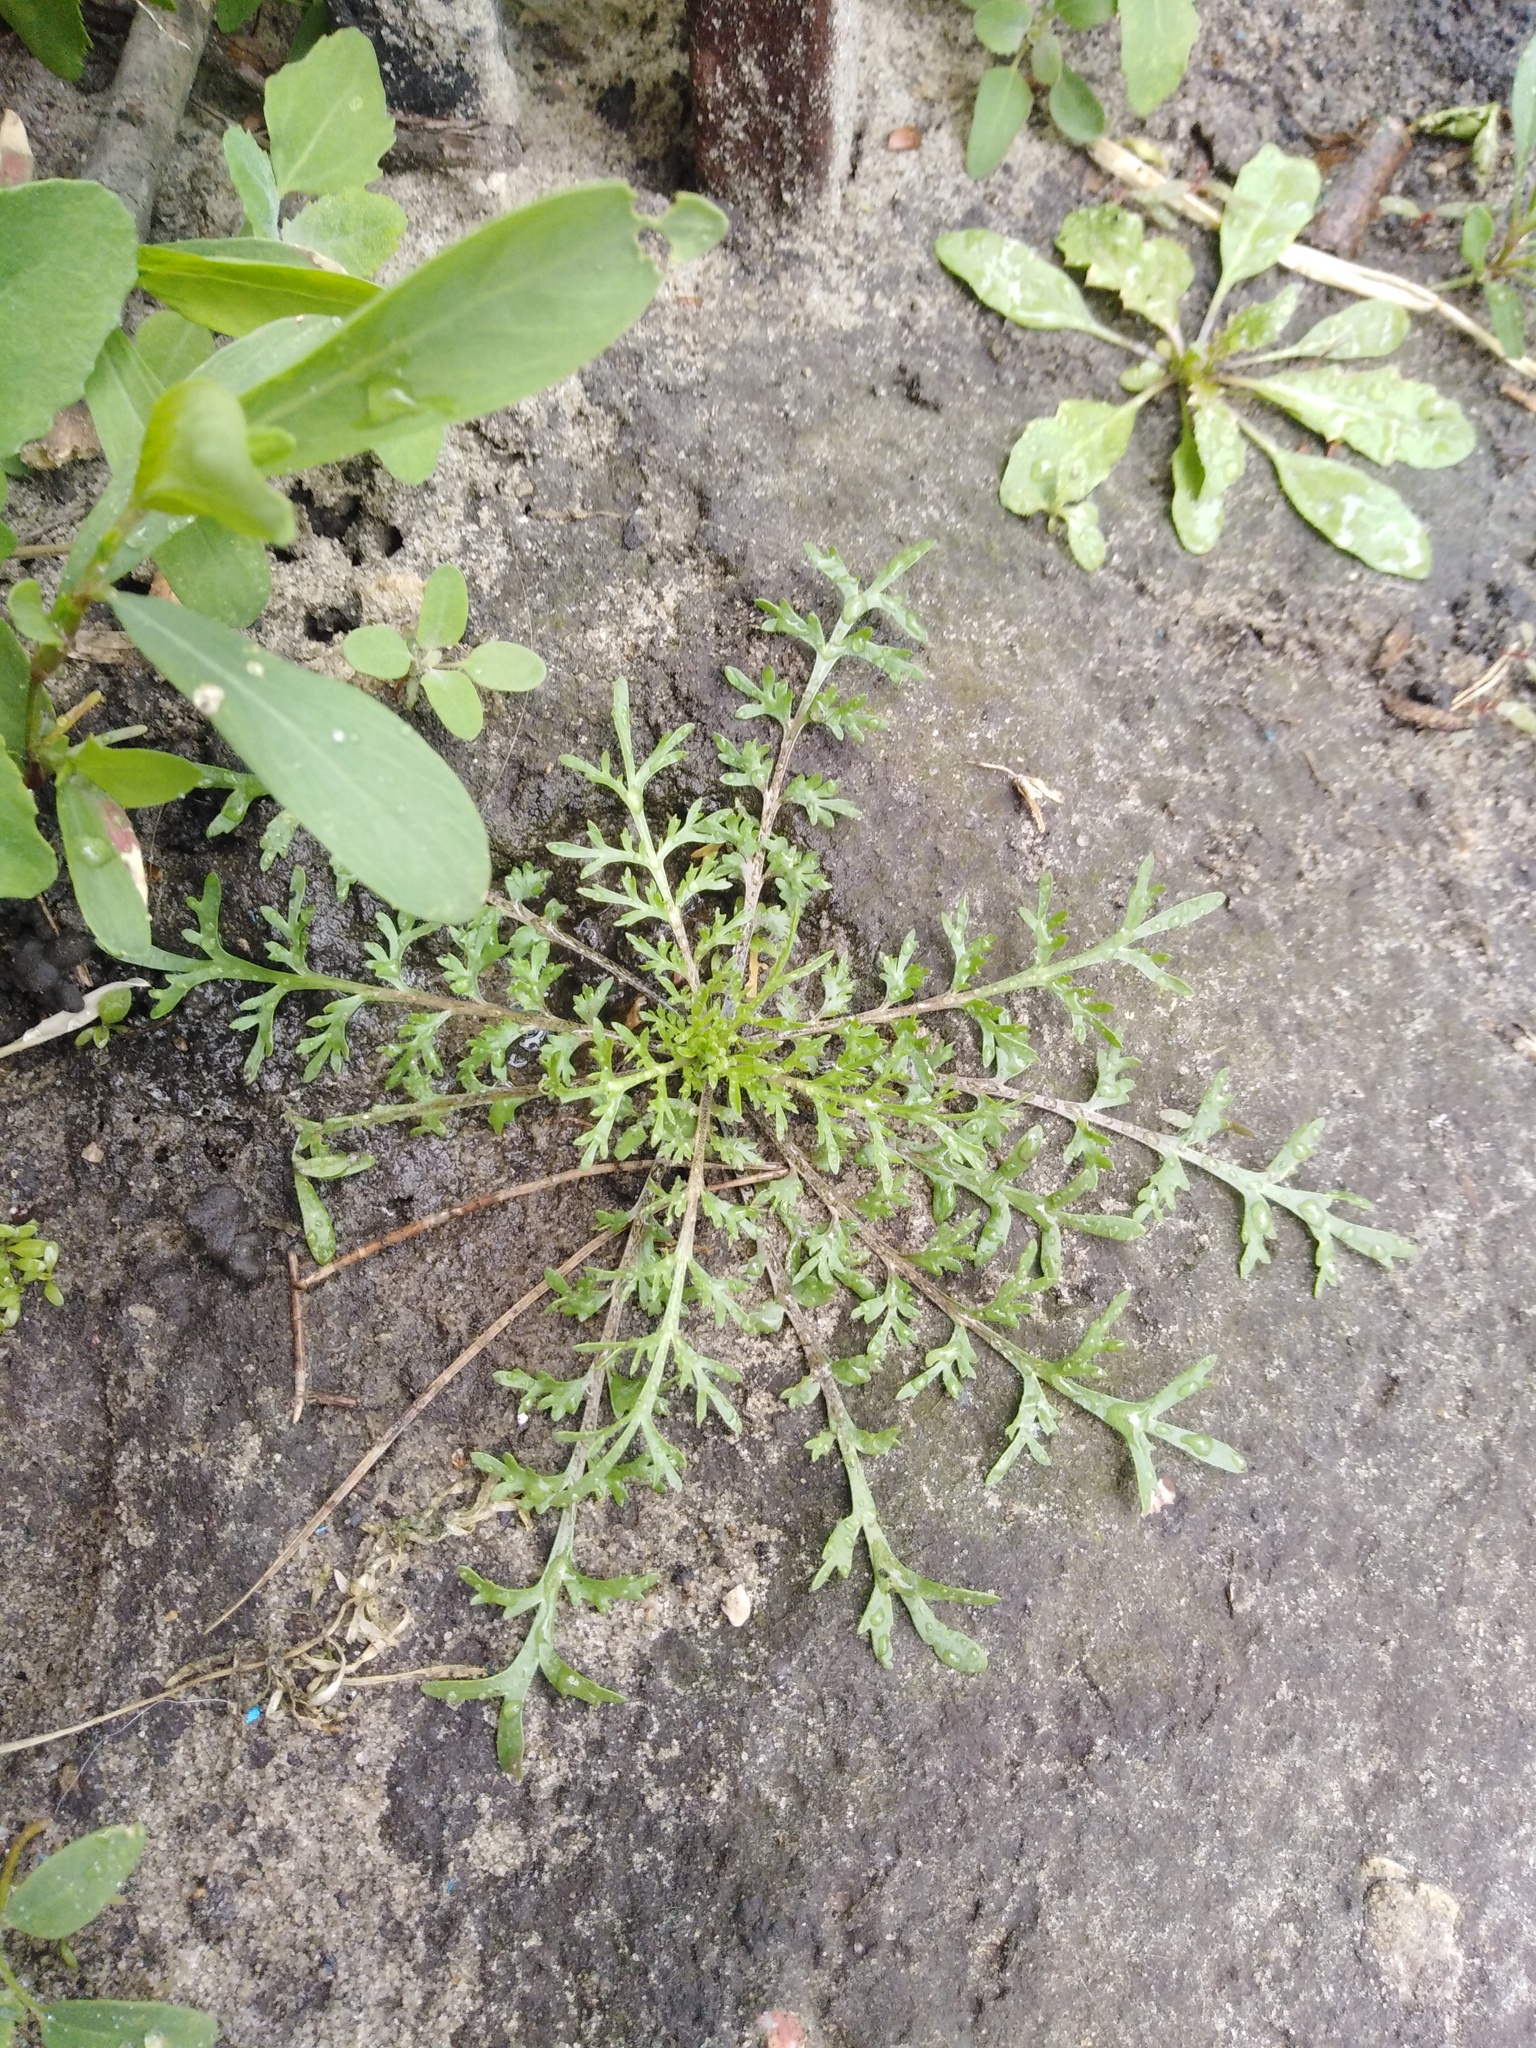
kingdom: Plantae
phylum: Tracheophyta
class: Magnoliopsida
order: Brassicales
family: Brassicaceae
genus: Lepidium
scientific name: Lepidium ruderale
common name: Narrow-leaved pepperwort
